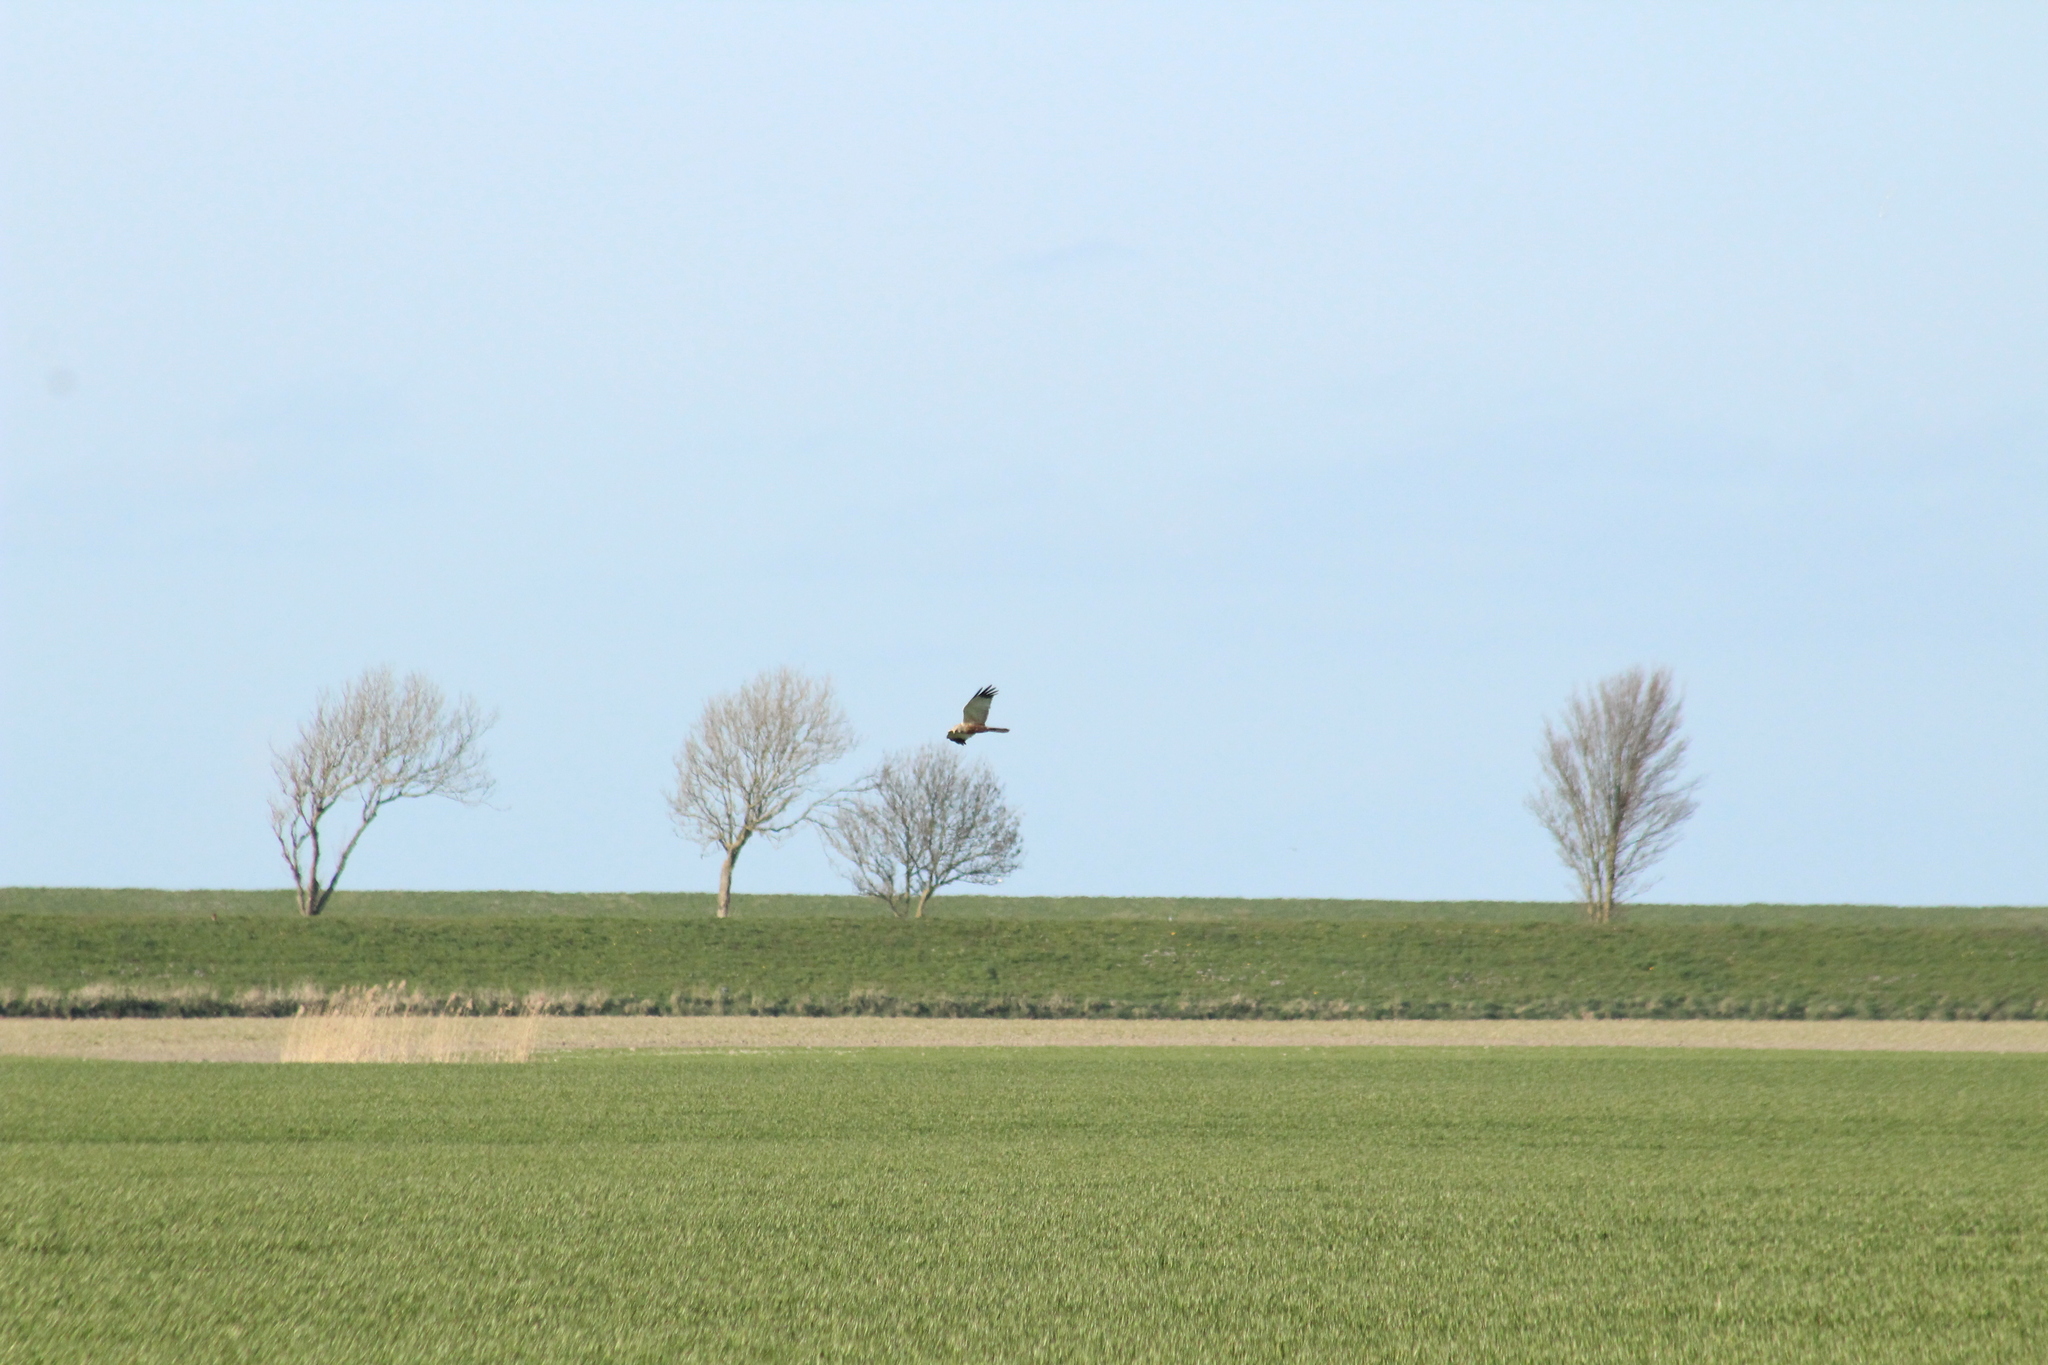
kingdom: Animalia
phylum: Chordata
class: Aves
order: Accipitriformes
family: Accipitridae
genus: Circus
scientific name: Circus aeruginosus
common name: Western marsh harrier
